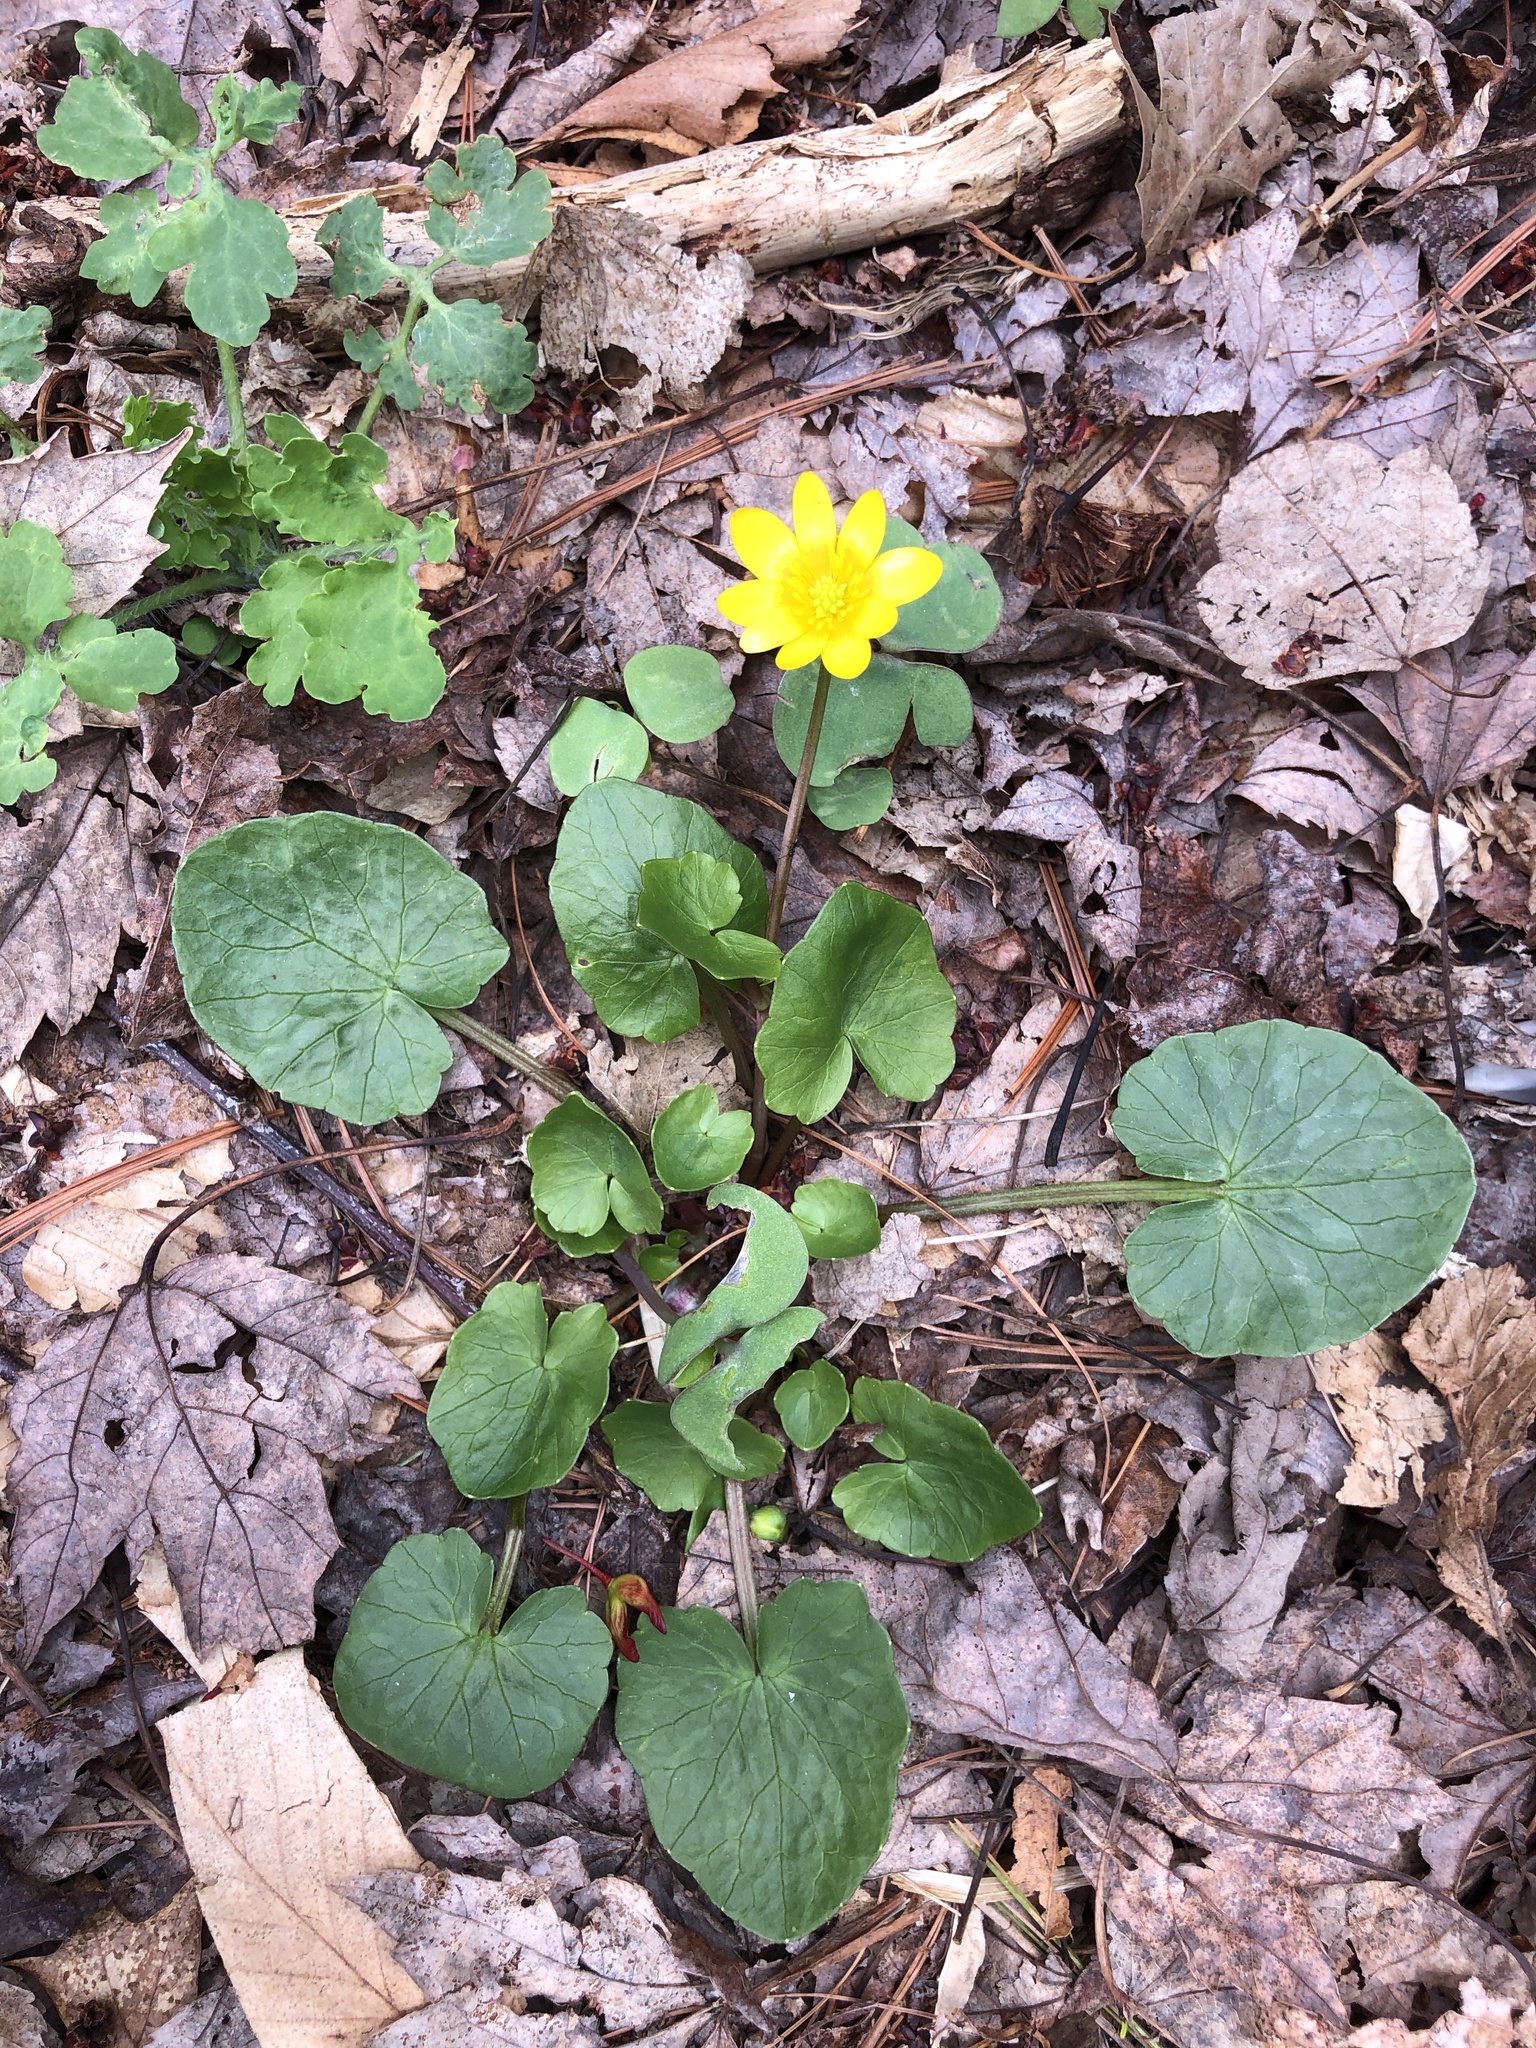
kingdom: Plantae
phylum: Tracheophyta
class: Magnoliopsida
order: Ranunculales
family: Ranunculaceae
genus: Ficaria
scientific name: Ficaria verna
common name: Lesser celandine
